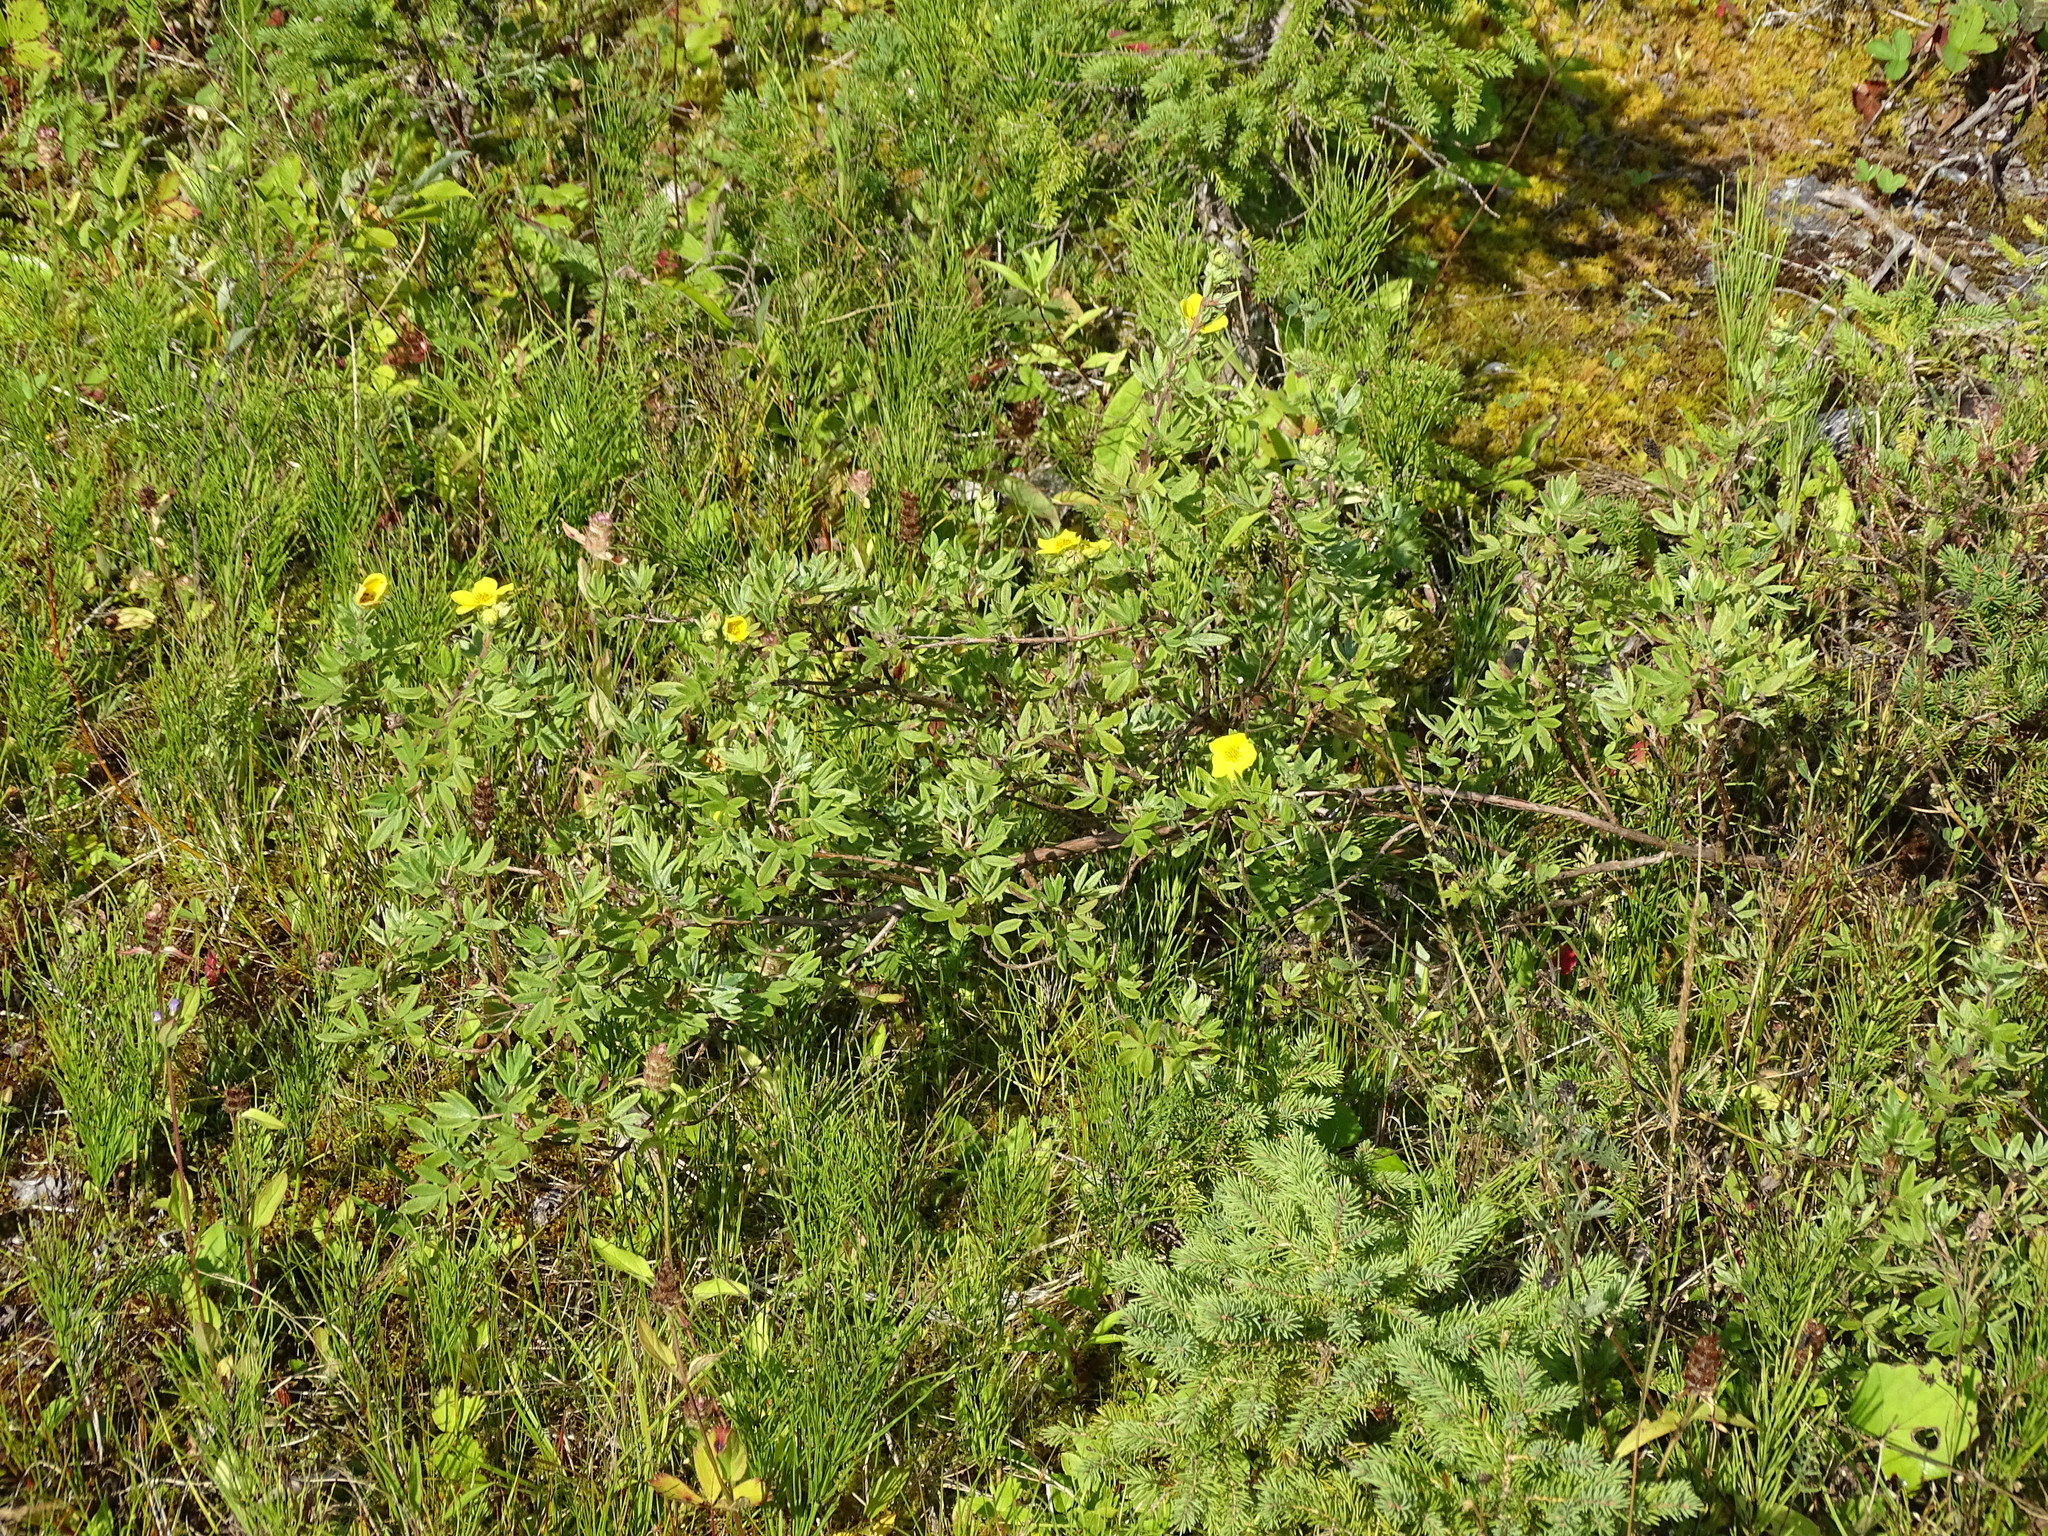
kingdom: Plantae
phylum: Tracheophyta
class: Magnoliopsida
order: Rosales
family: Rosaceae
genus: Dasiphora
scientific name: Dasiphora fruticosa
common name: Shrubby cinquefoil
